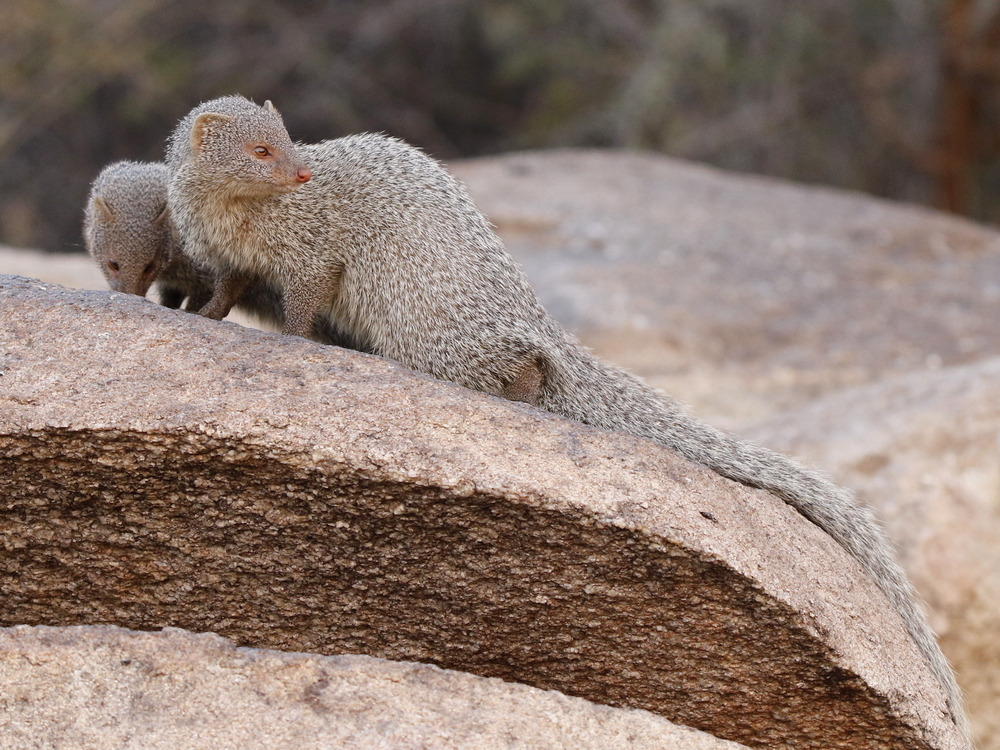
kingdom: Animalia
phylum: Chordata
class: Mammalia
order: Carnivora
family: Herpestidae
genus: Herpestes
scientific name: Herpestes edwardsi
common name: Indian gray mongoose
